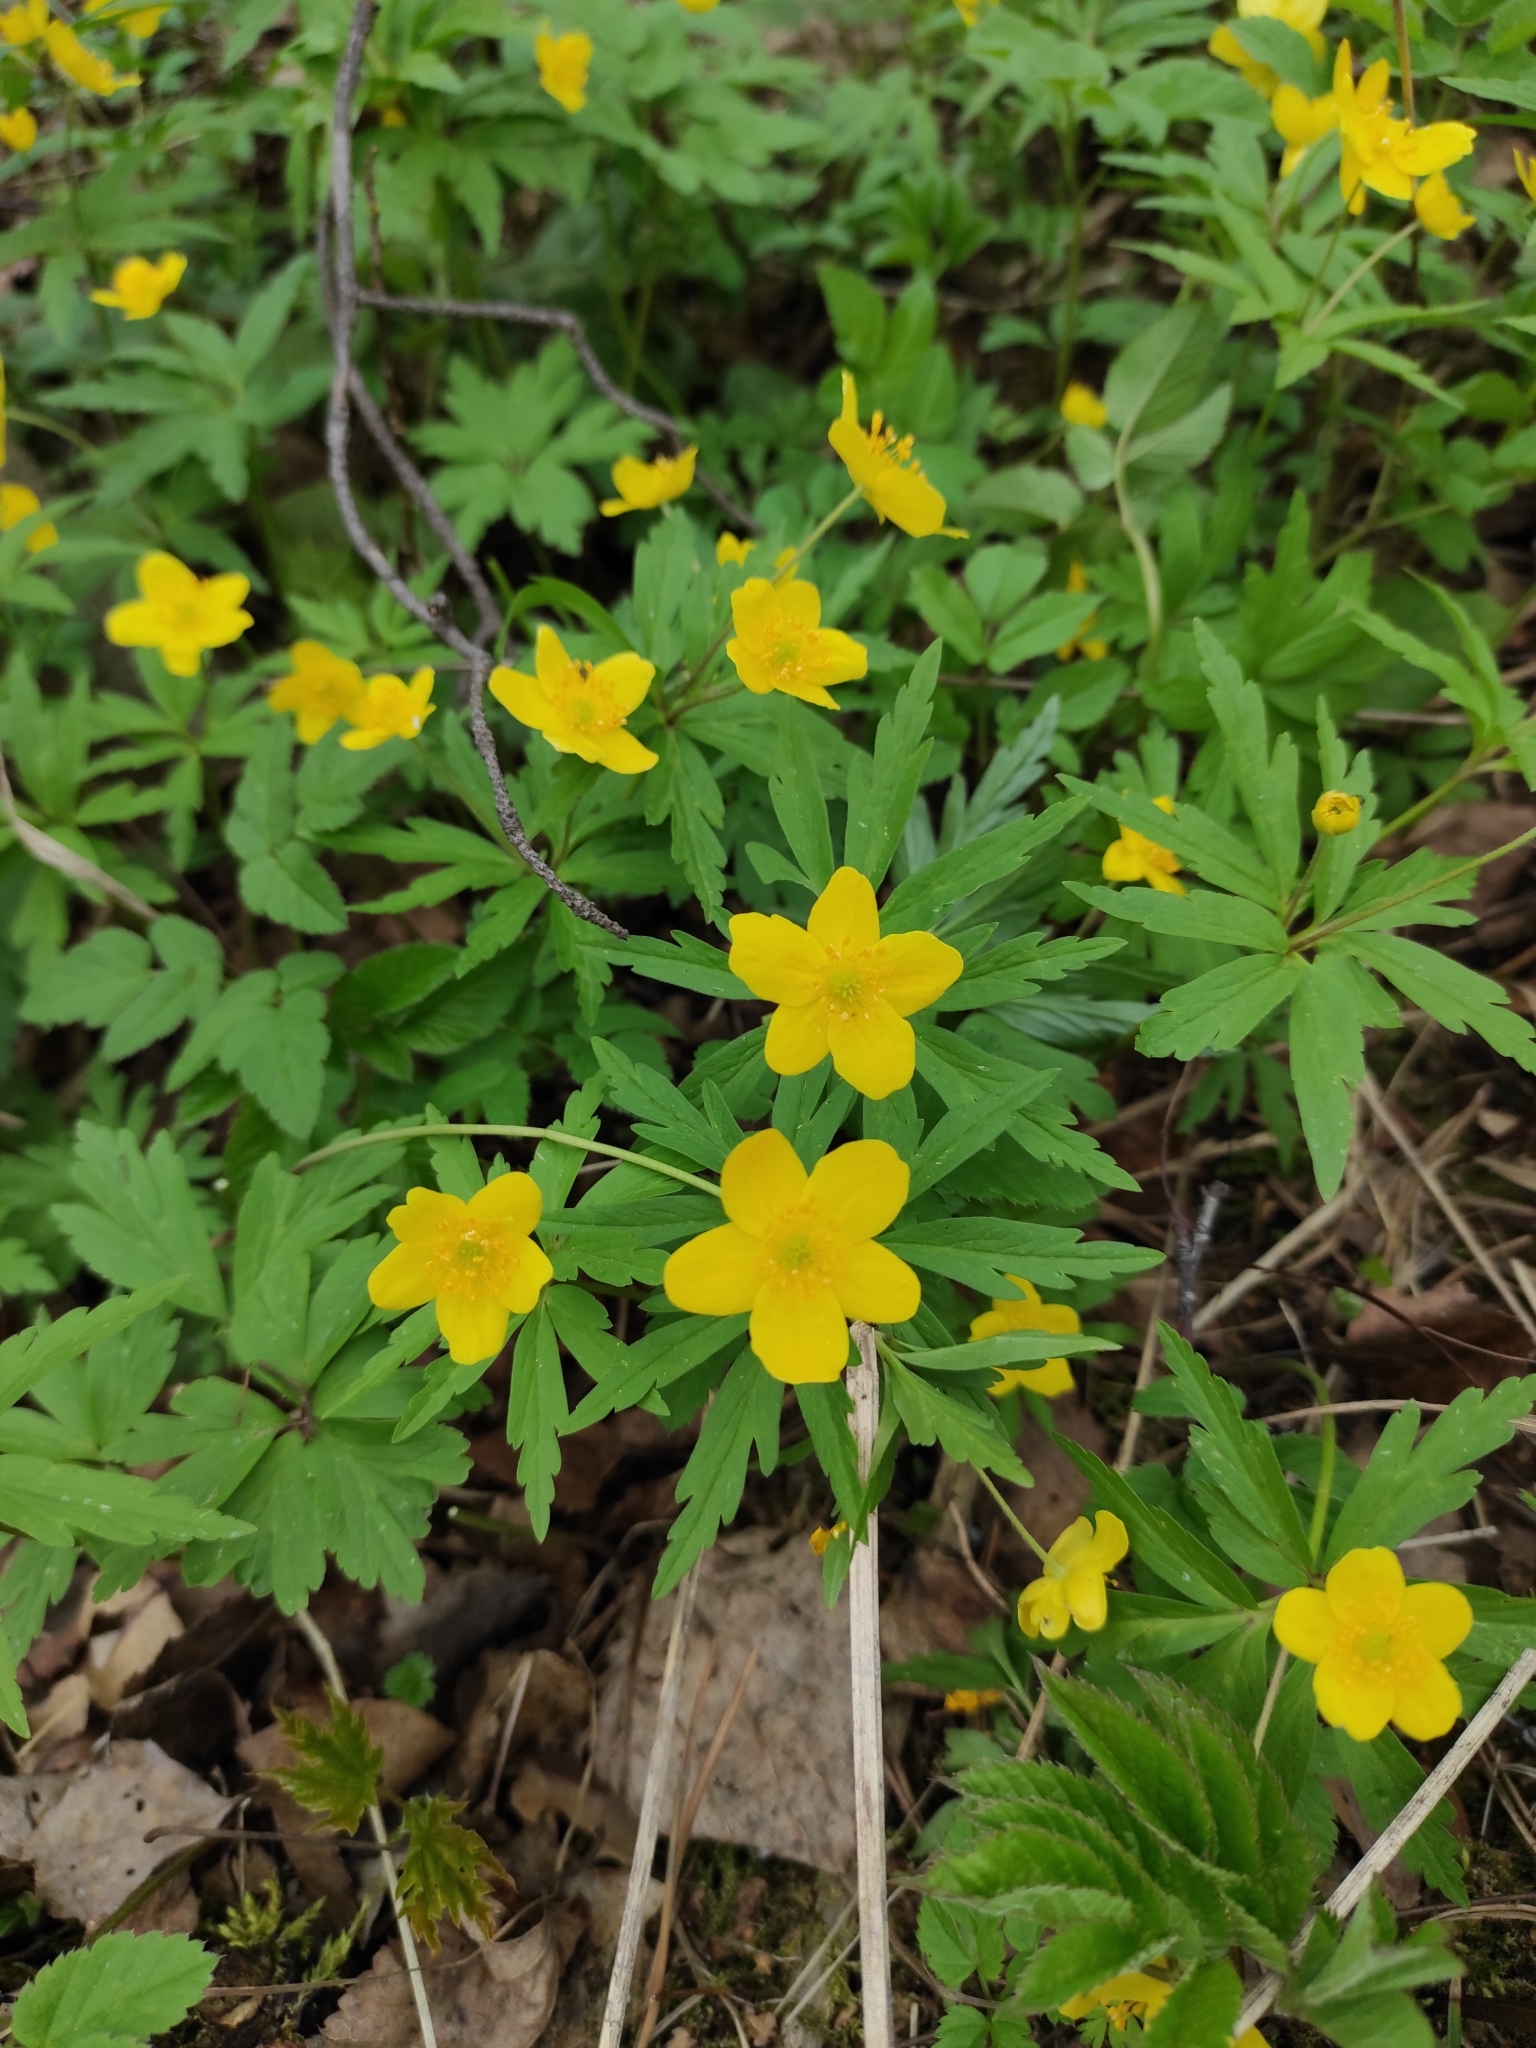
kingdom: Plantae
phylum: Tracheophyta
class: Magnoliopsida
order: Ranunculales
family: Ranunculaceae
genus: Anemone
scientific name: Anemone ranunculoides
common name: Yellow anemone
